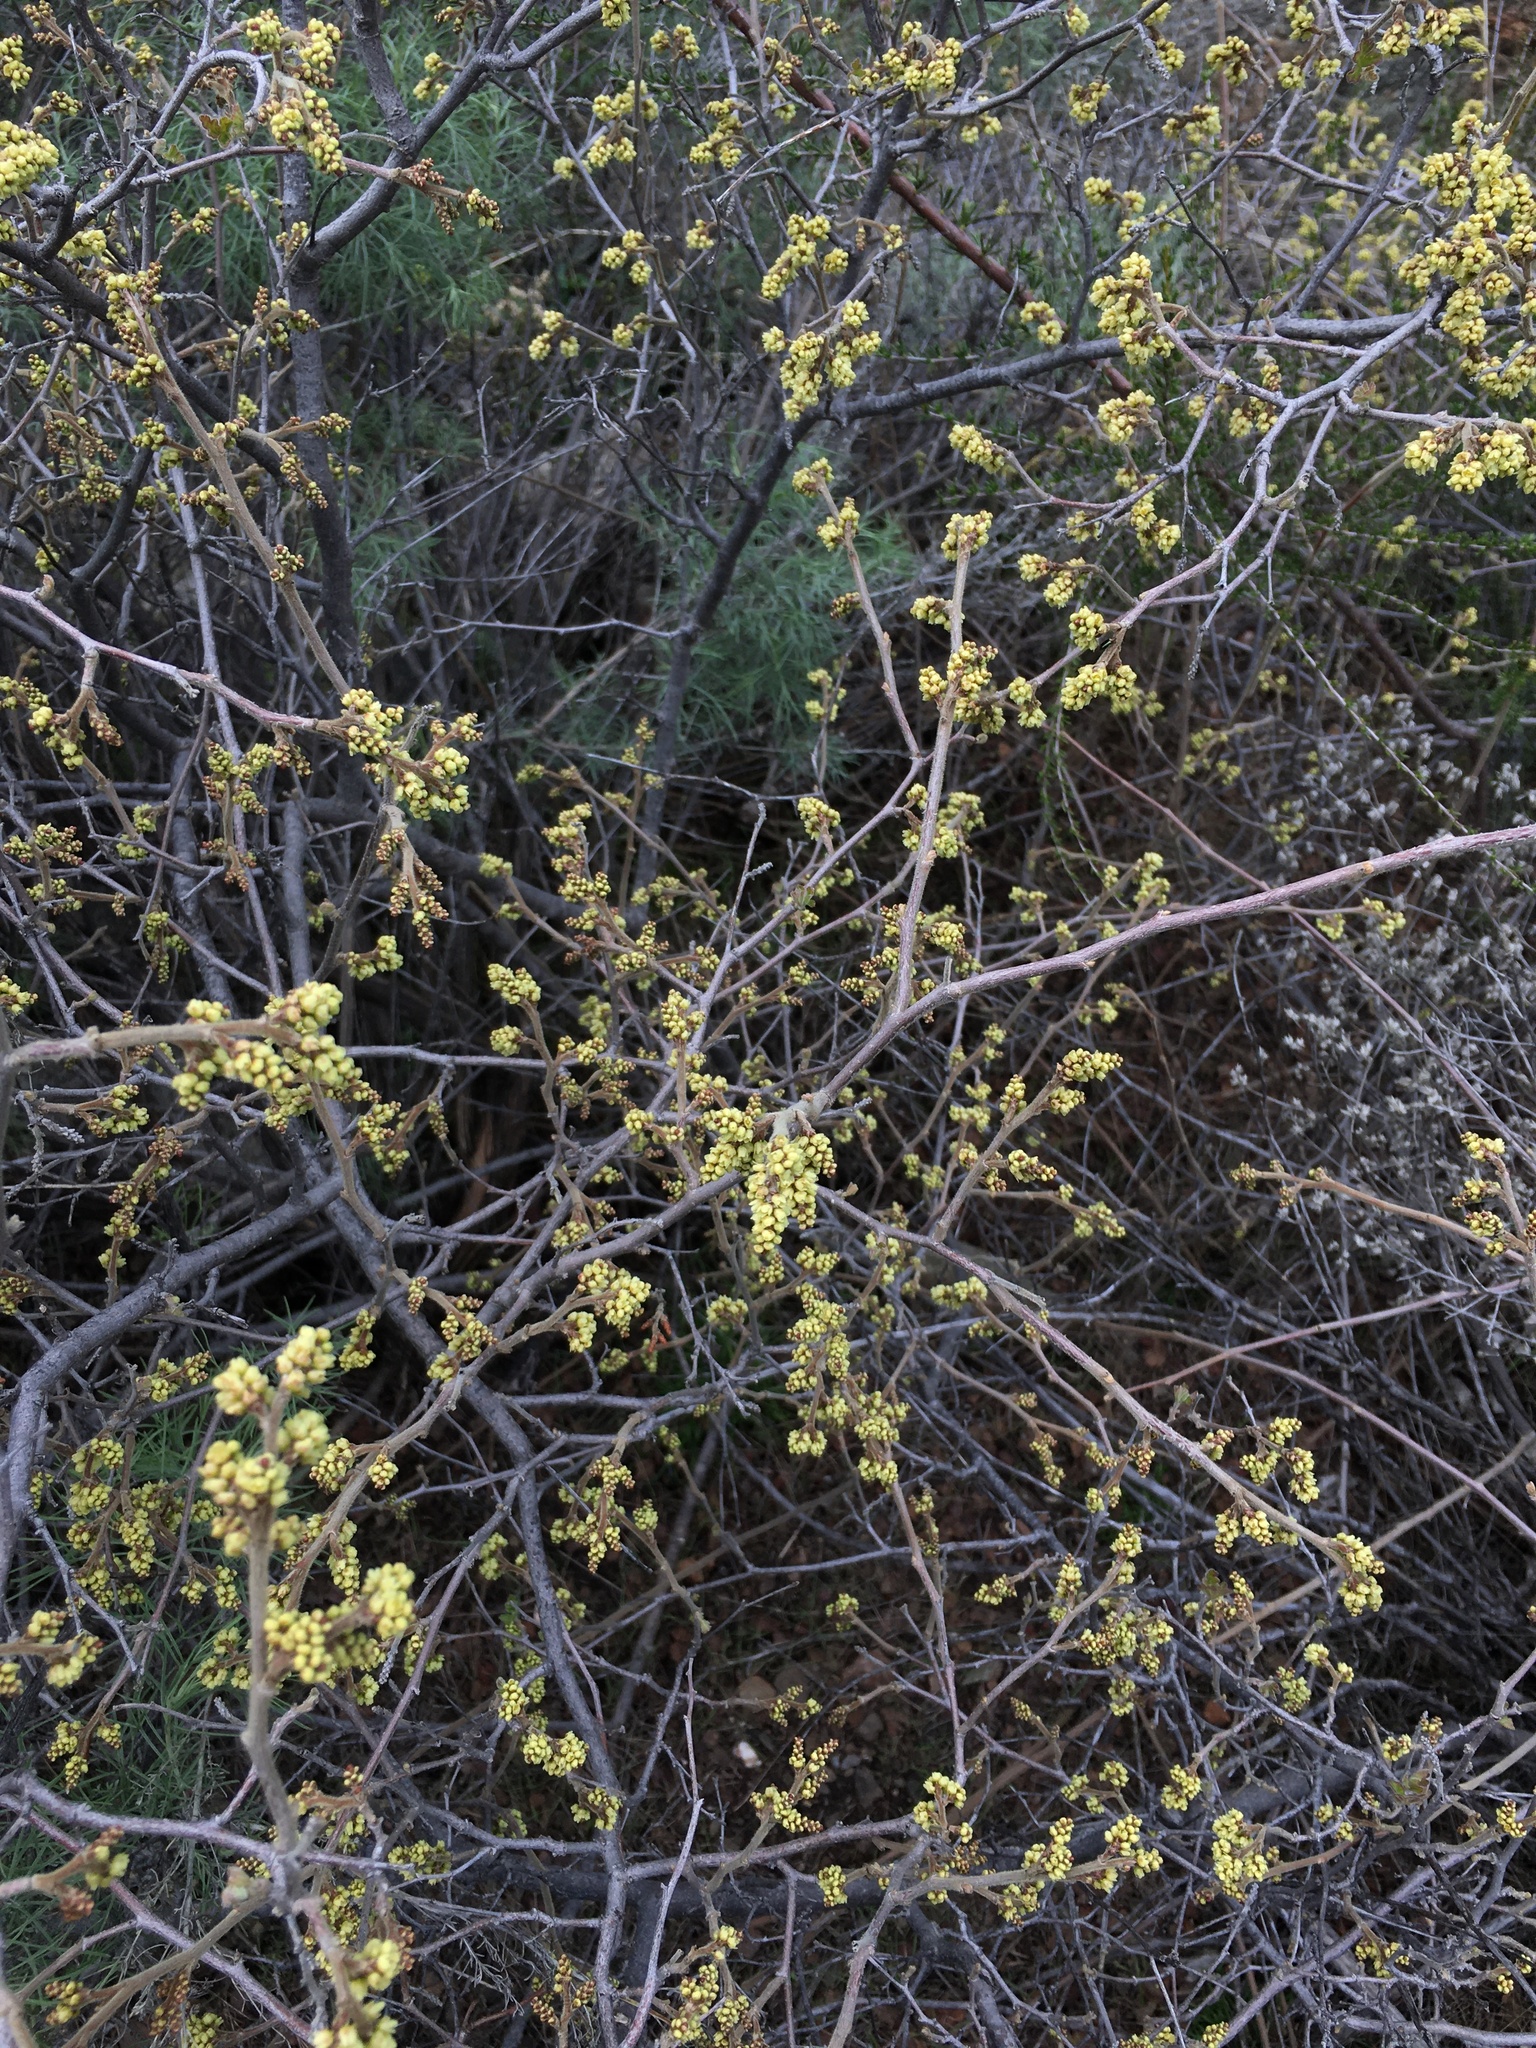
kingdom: Plantae
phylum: Tracheophyta
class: Magnoliopsida
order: Sapindales
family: Anacardiaceae
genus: Rhus
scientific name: Rhus aromatica
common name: Aromatic sumac
